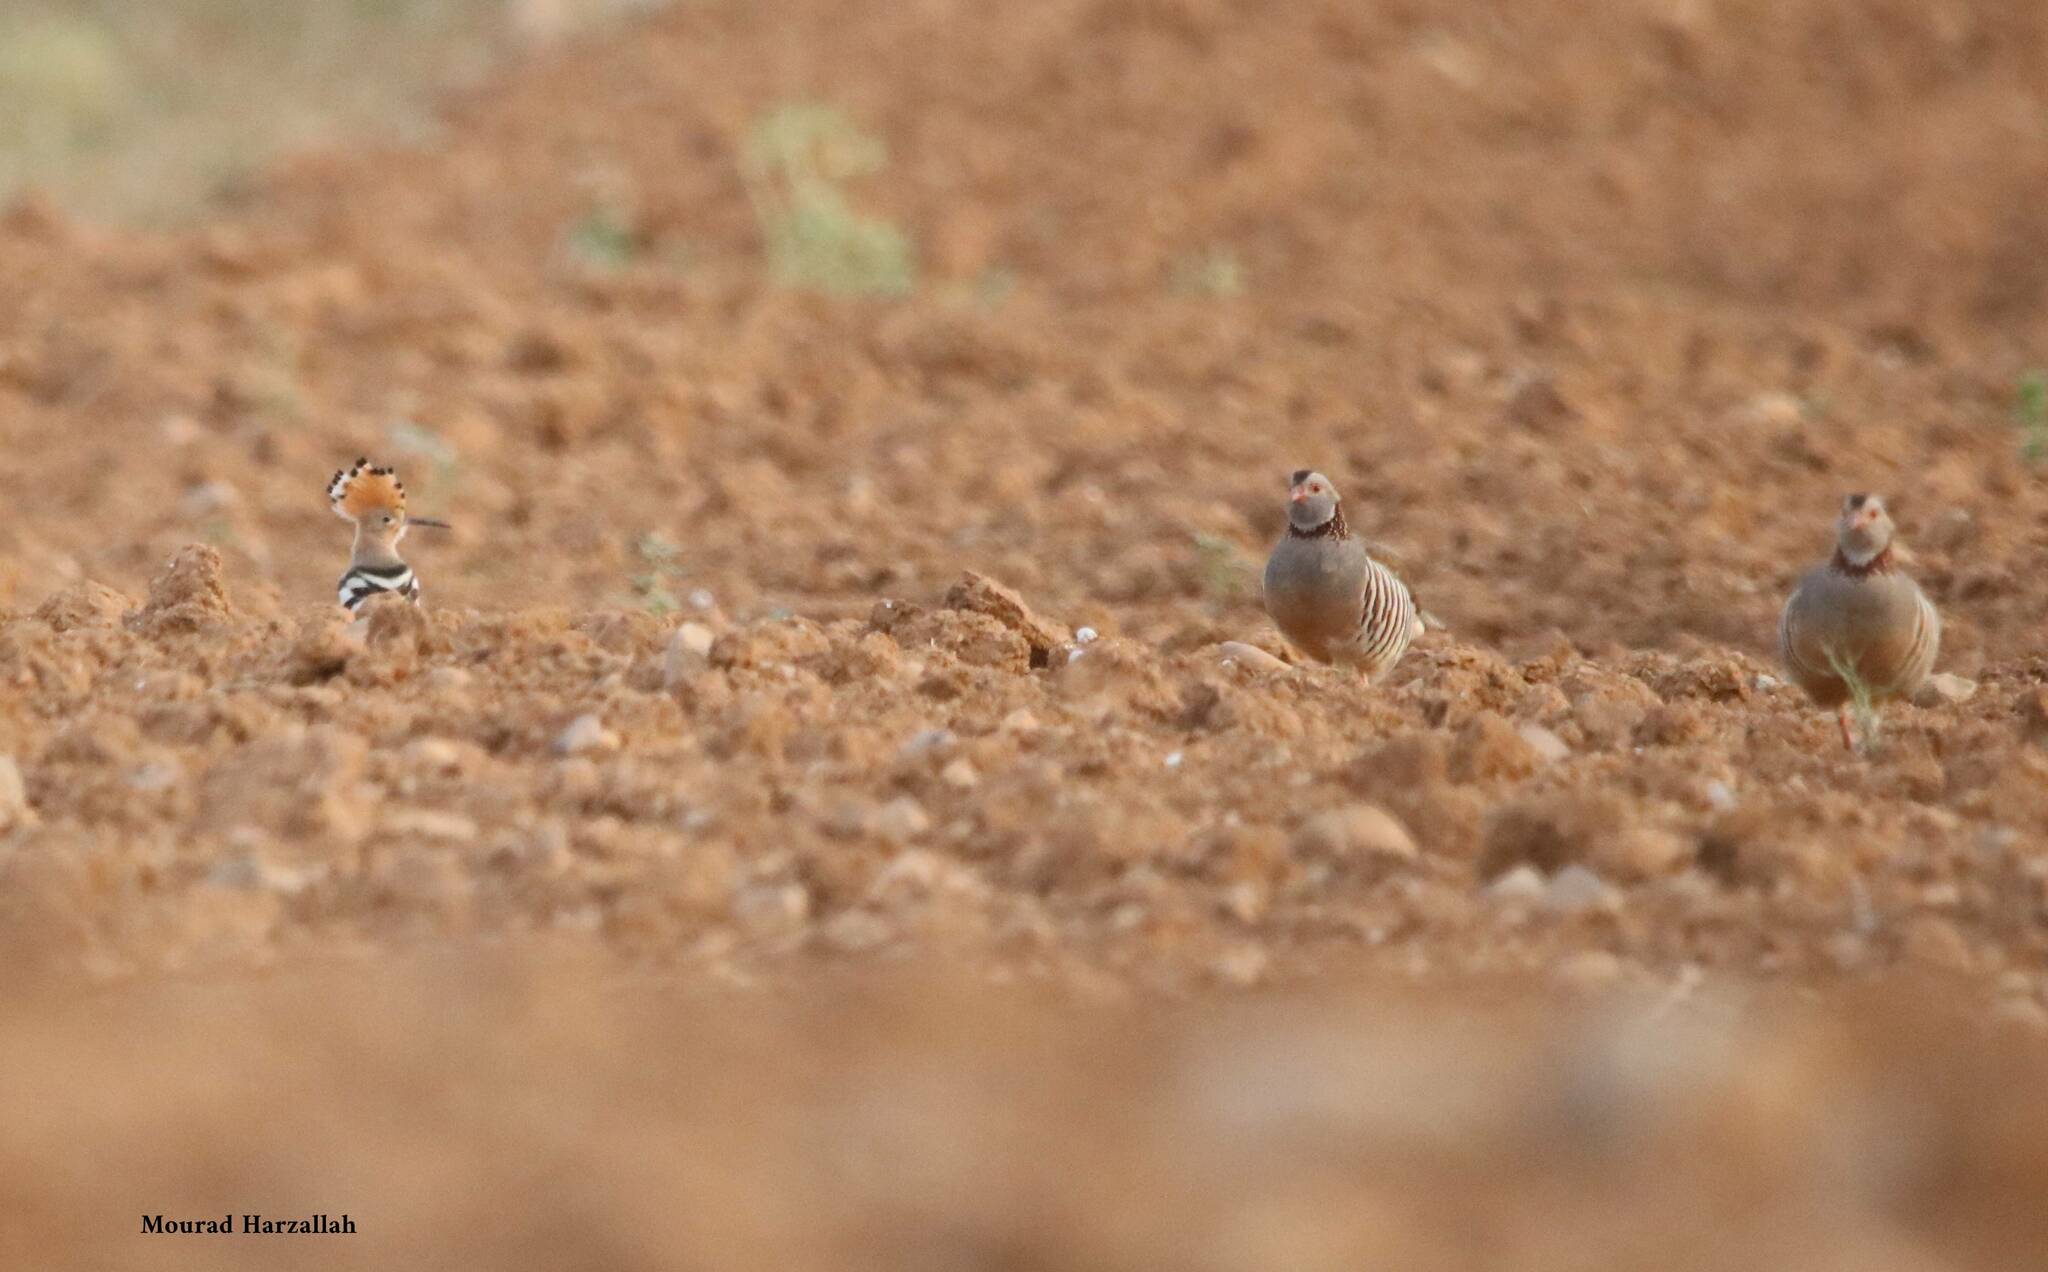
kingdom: Animalia
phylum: Chordata
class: Aves
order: Galliformes
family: Phasianidae
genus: Alectoris
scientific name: Alectoris barbara
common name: Barbary partridge
